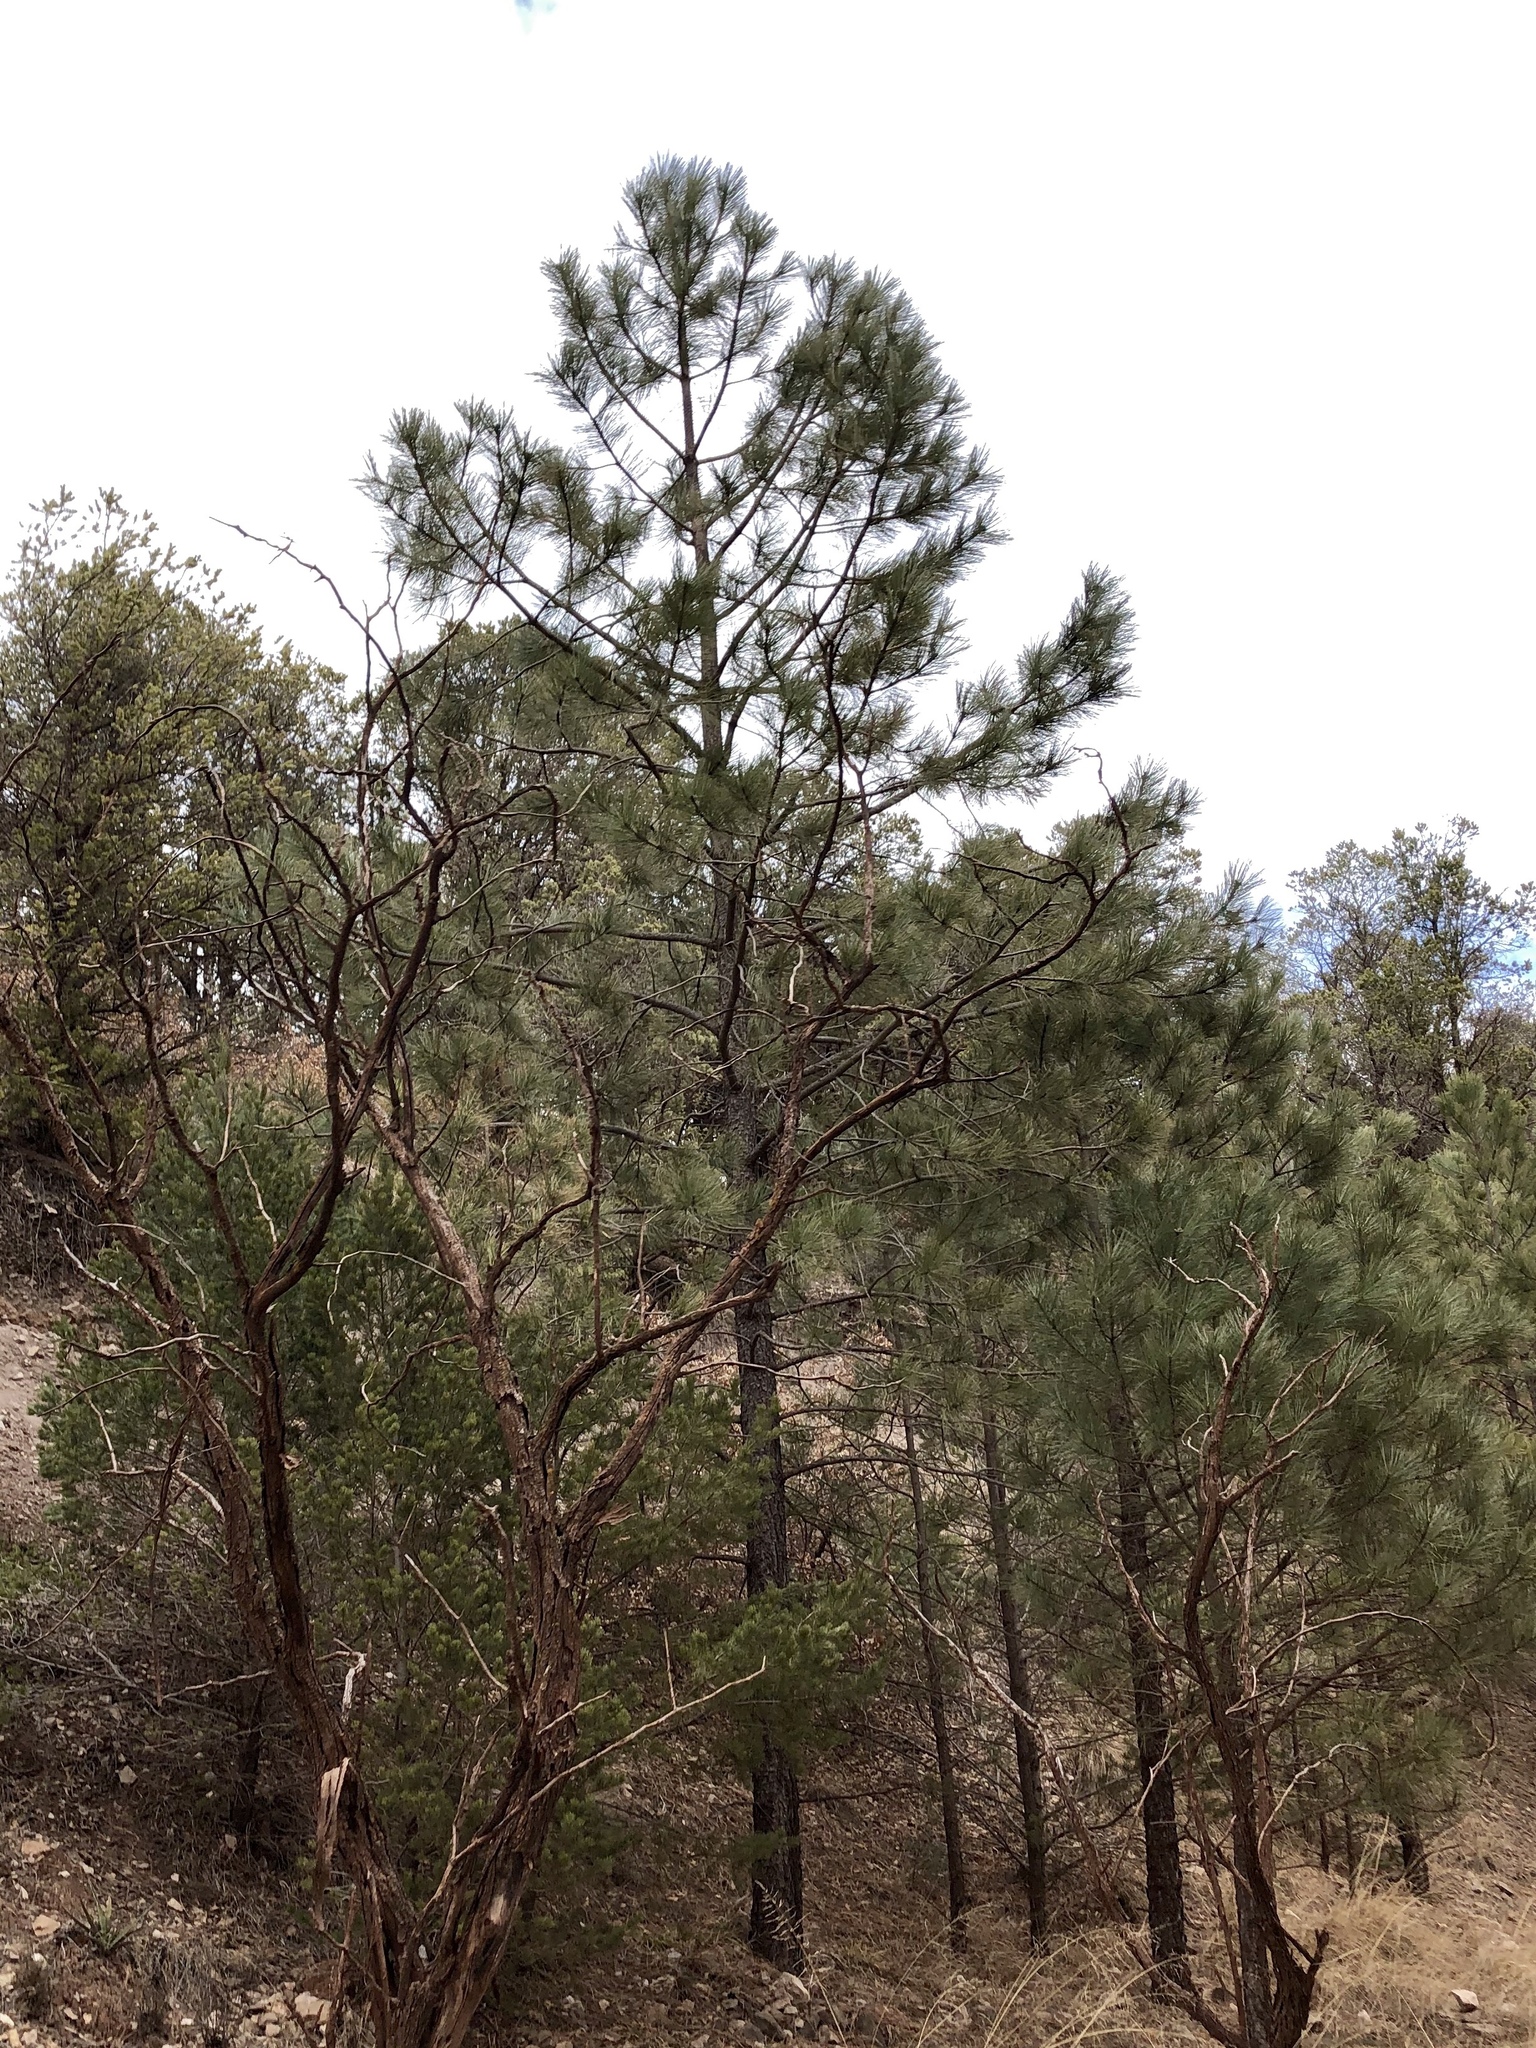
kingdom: Plantae
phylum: Tracheophyta
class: Pinopsida
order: Pinales
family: Pinaceae
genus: Pinus
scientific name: Pinus ponderosa
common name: Western yellow-pine
